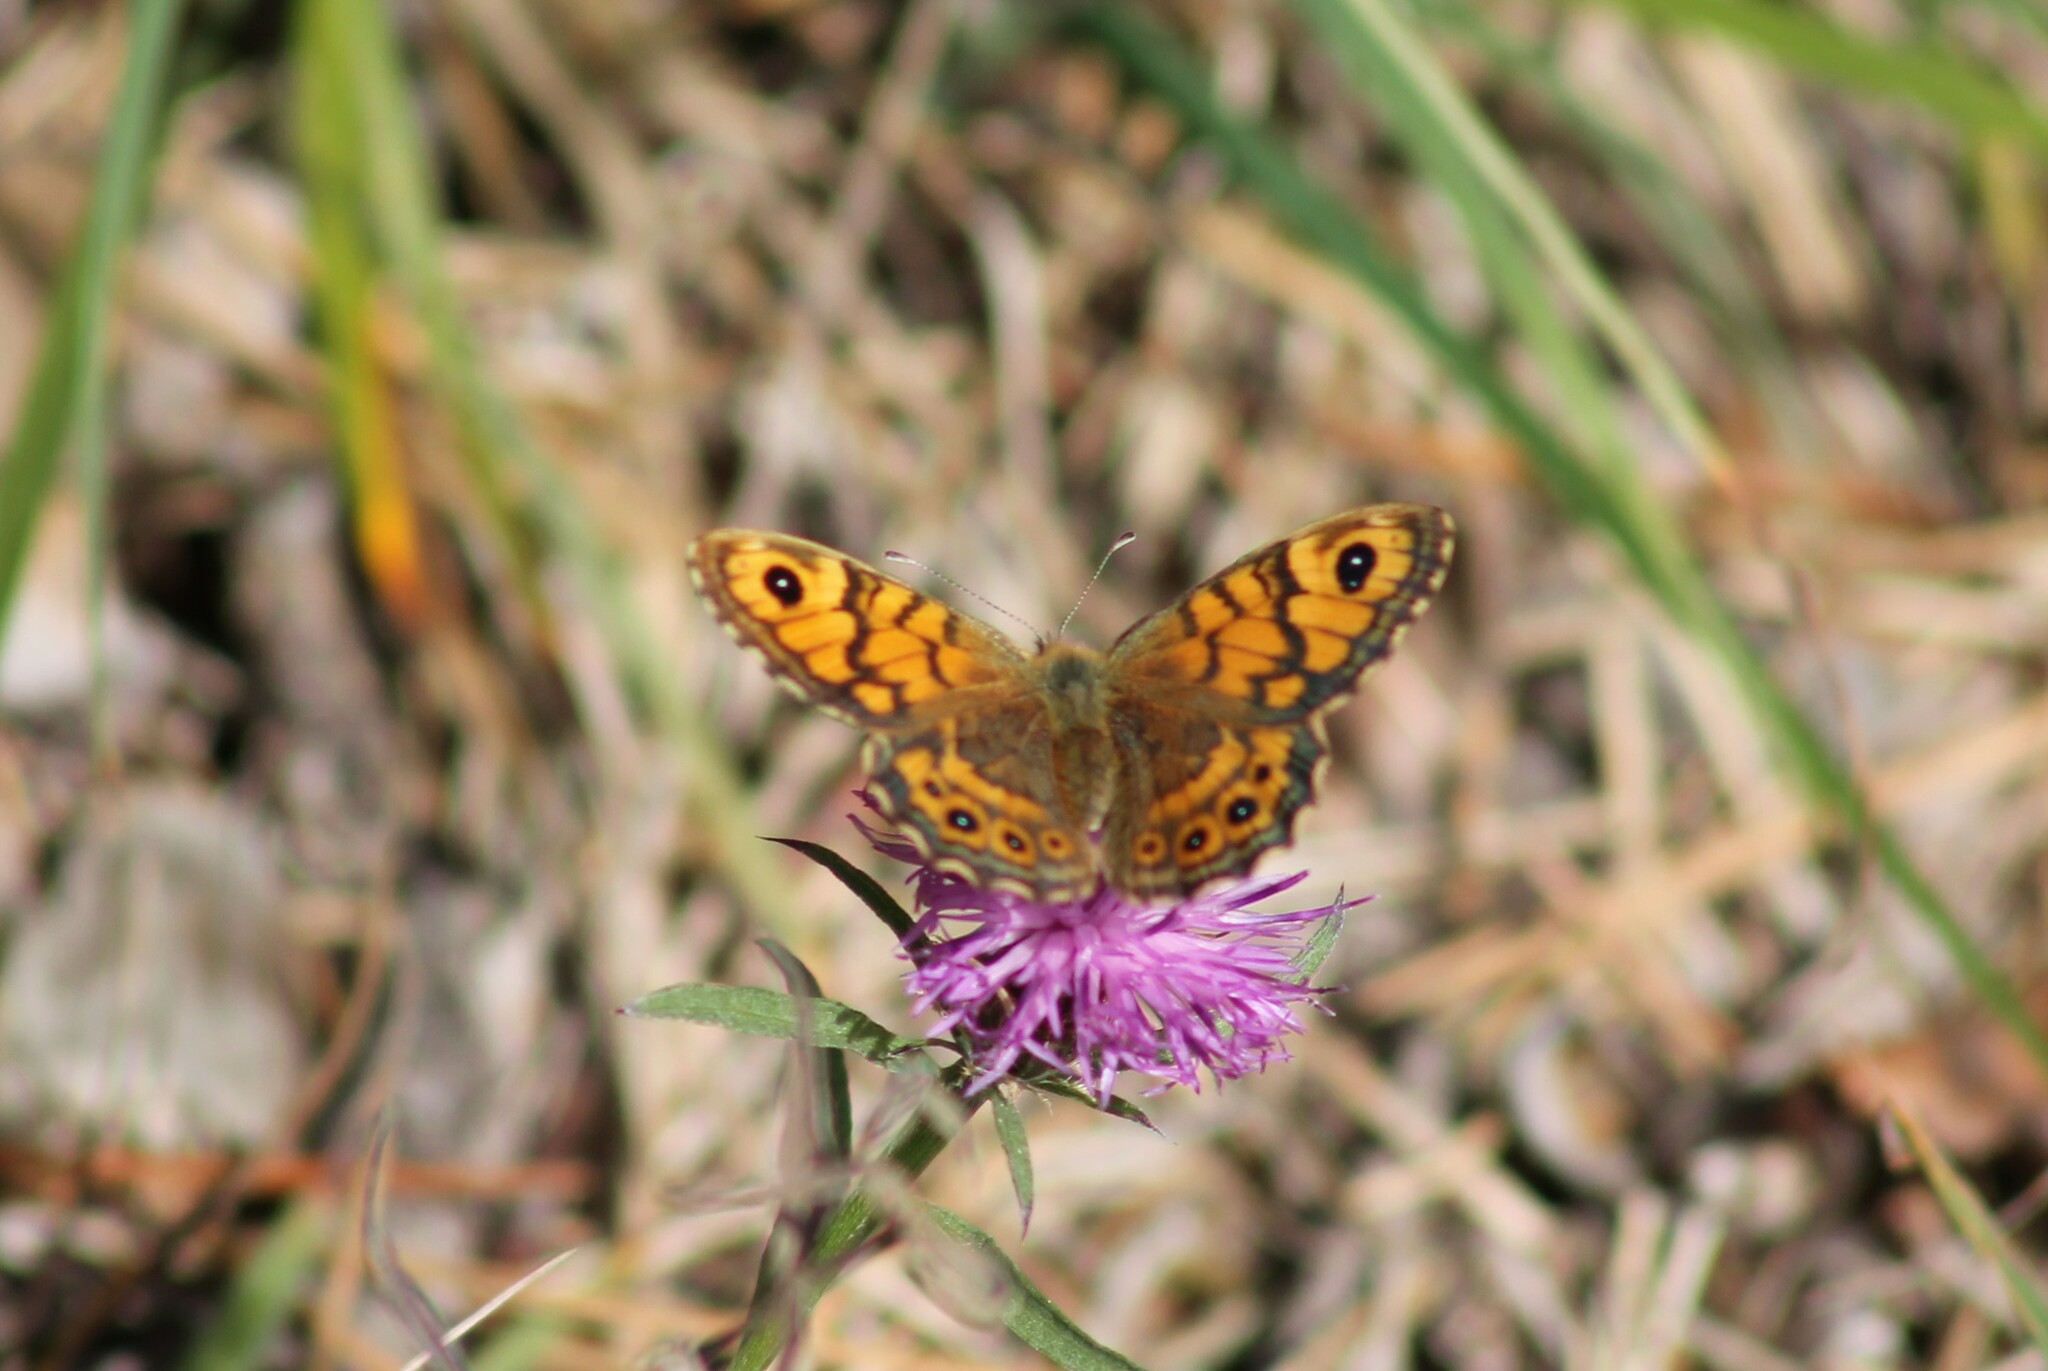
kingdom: Animalia
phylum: Arthropoda
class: Insecta
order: Lepidoptera
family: Nymphalidae
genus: Pararge
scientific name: Pararge Lasiommata megera
